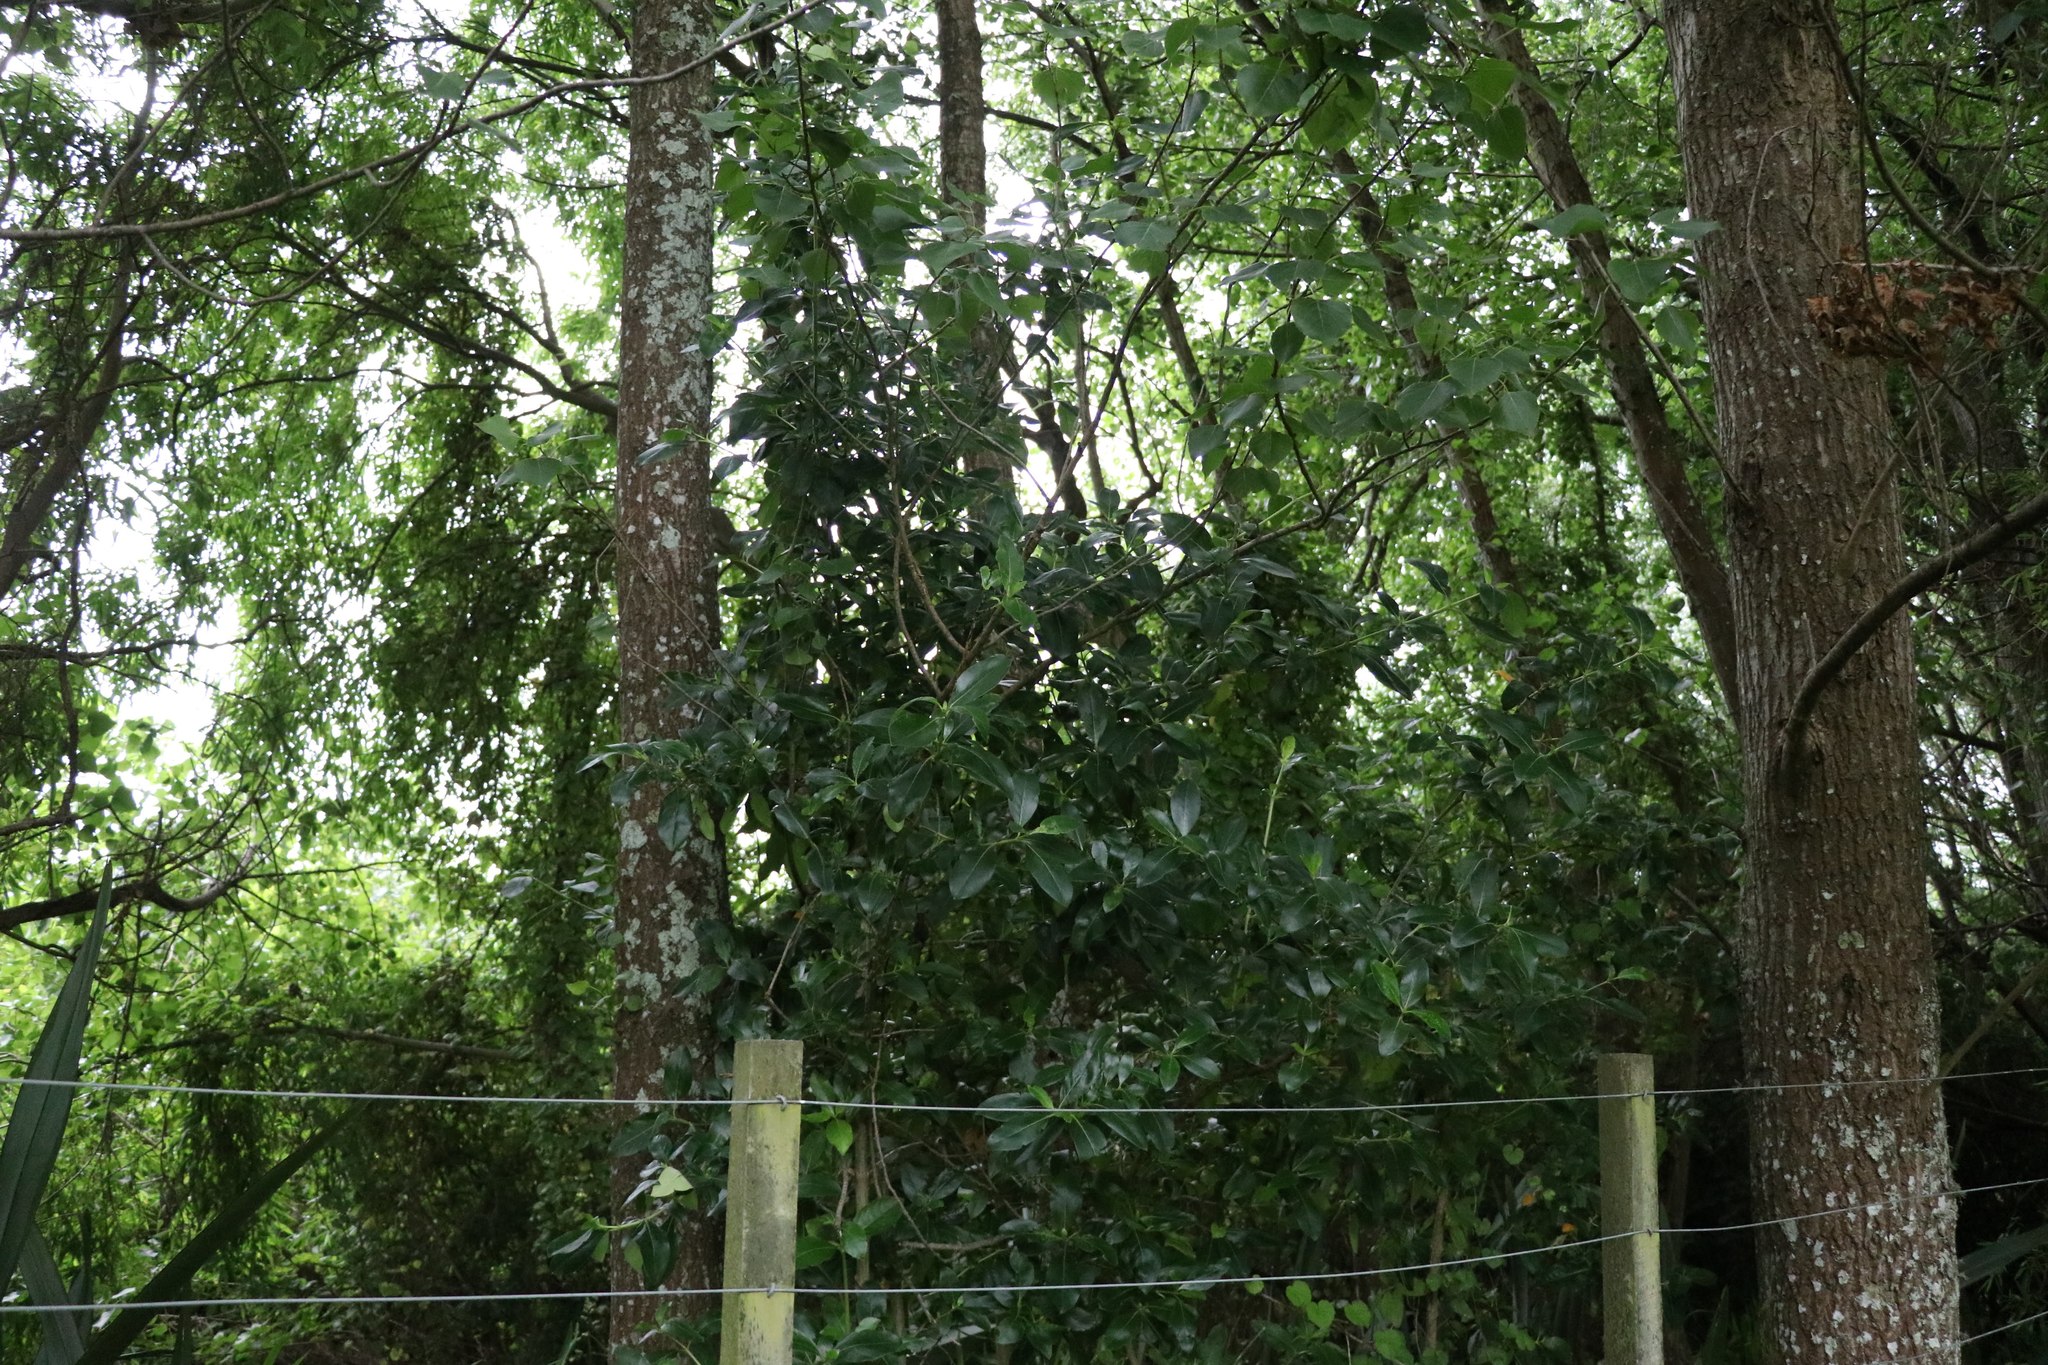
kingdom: Plantae
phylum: Tracheophyta
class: Magnoliopsida
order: Gentianales
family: Rubiaceae
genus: Coprosma
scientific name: Coprosma robusta
